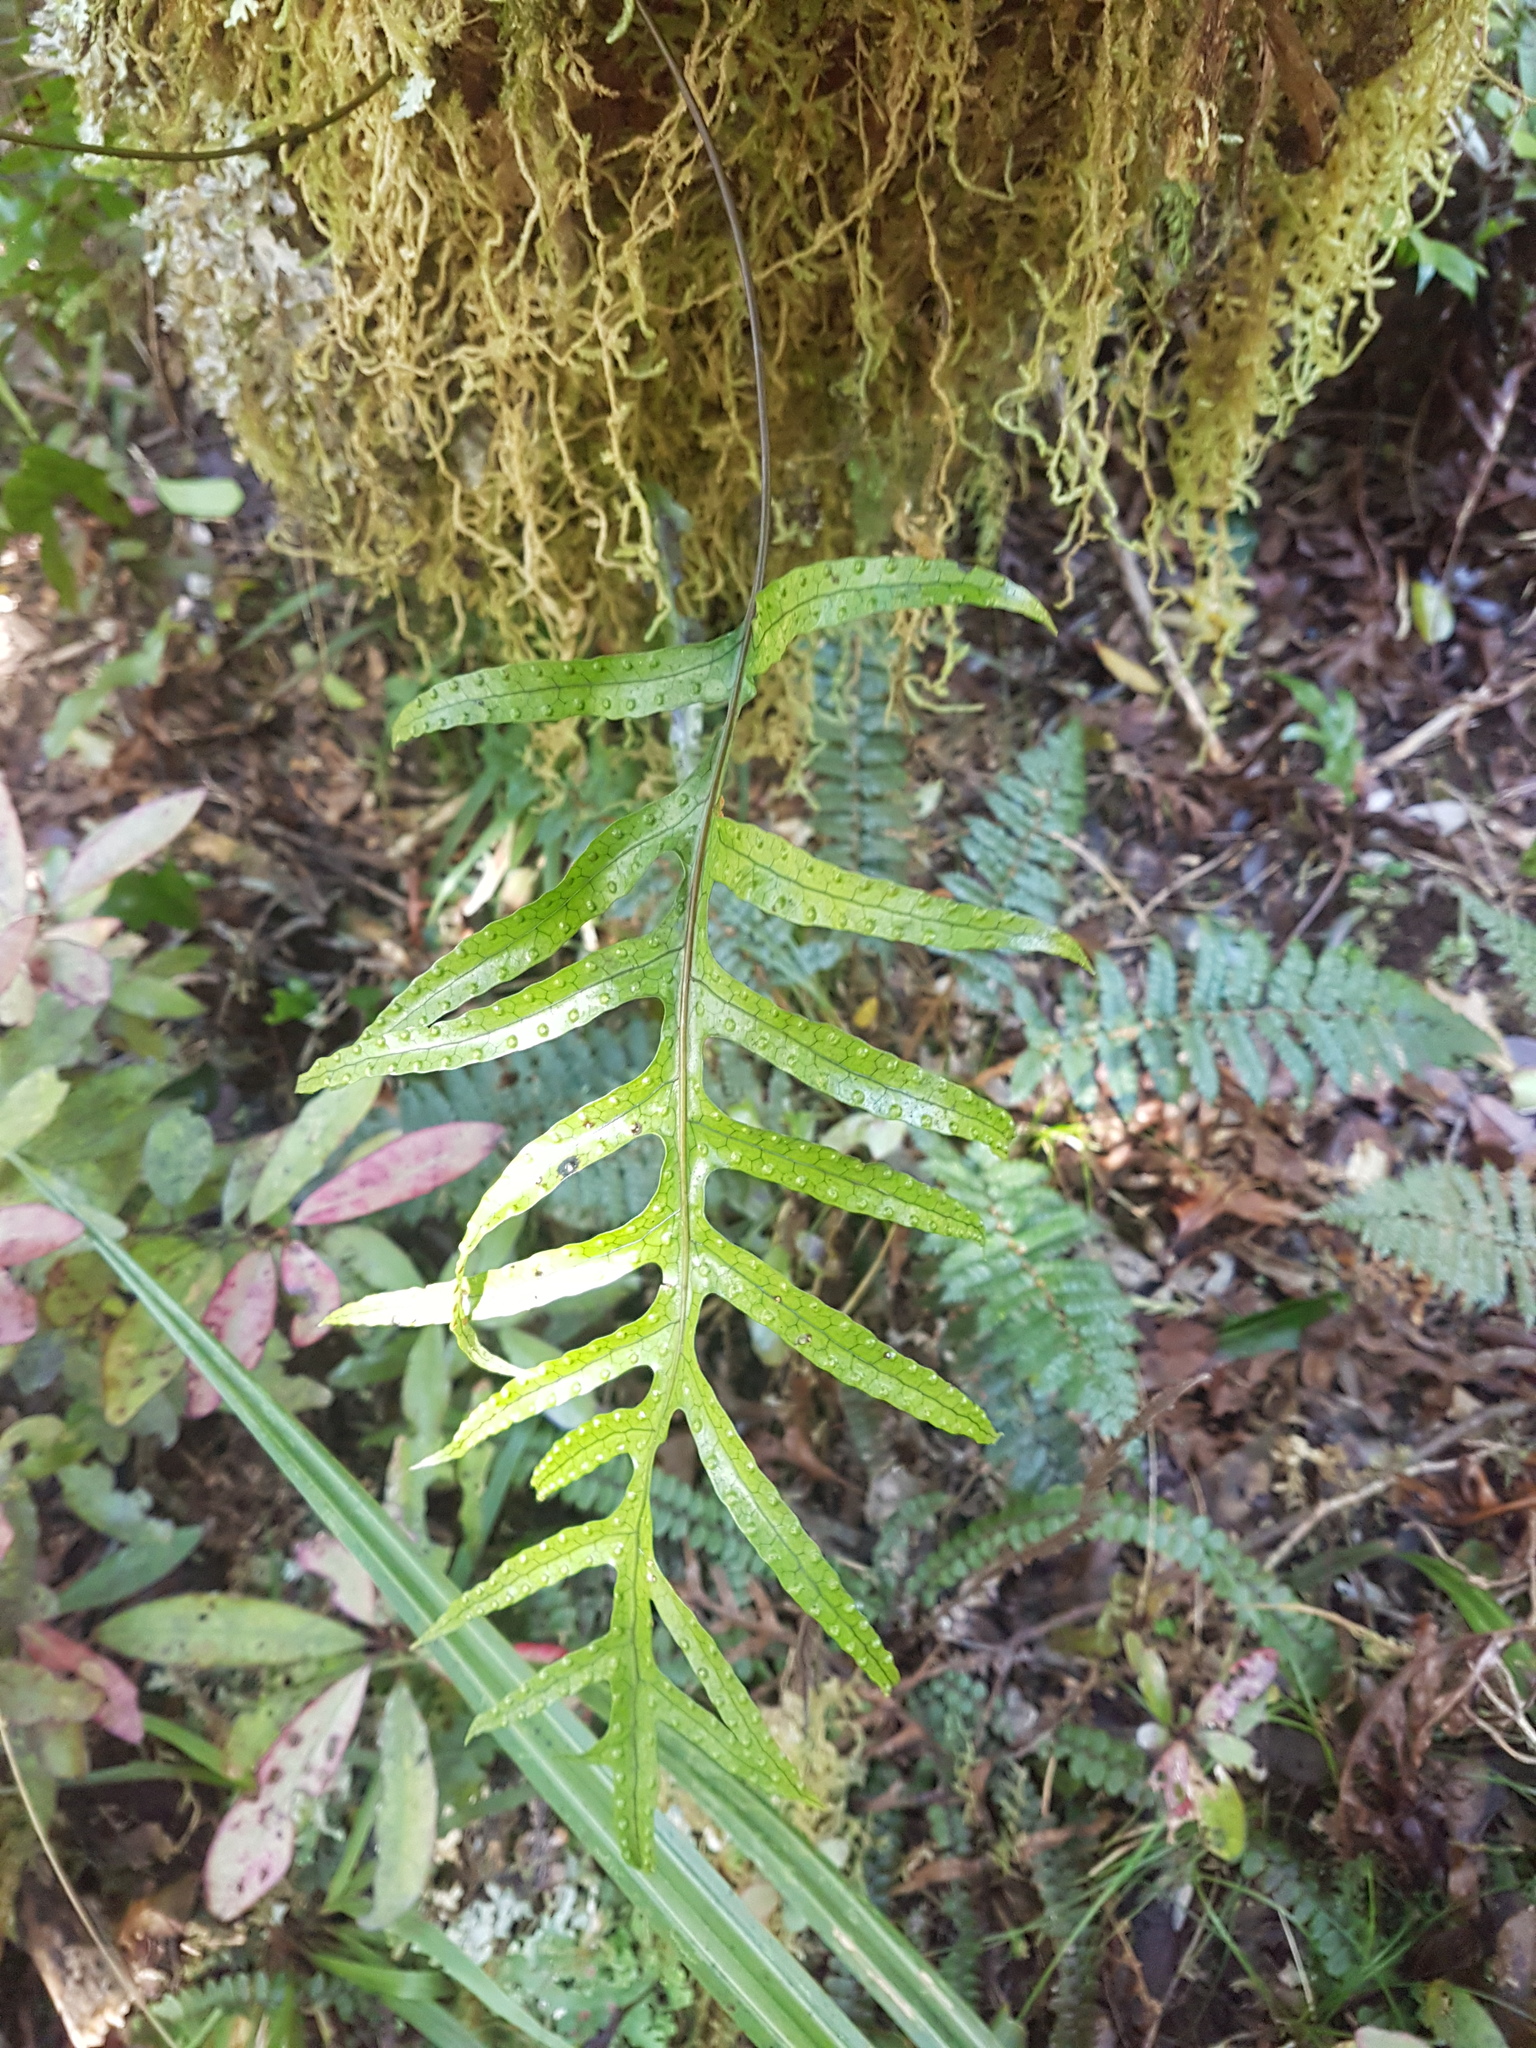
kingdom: Plantae
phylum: Tracheophyta
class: Polypodiopsida
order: Polypodiales
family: Polypodiaceae
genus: Lecanopteris
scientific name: Lecanopteris pustulata
